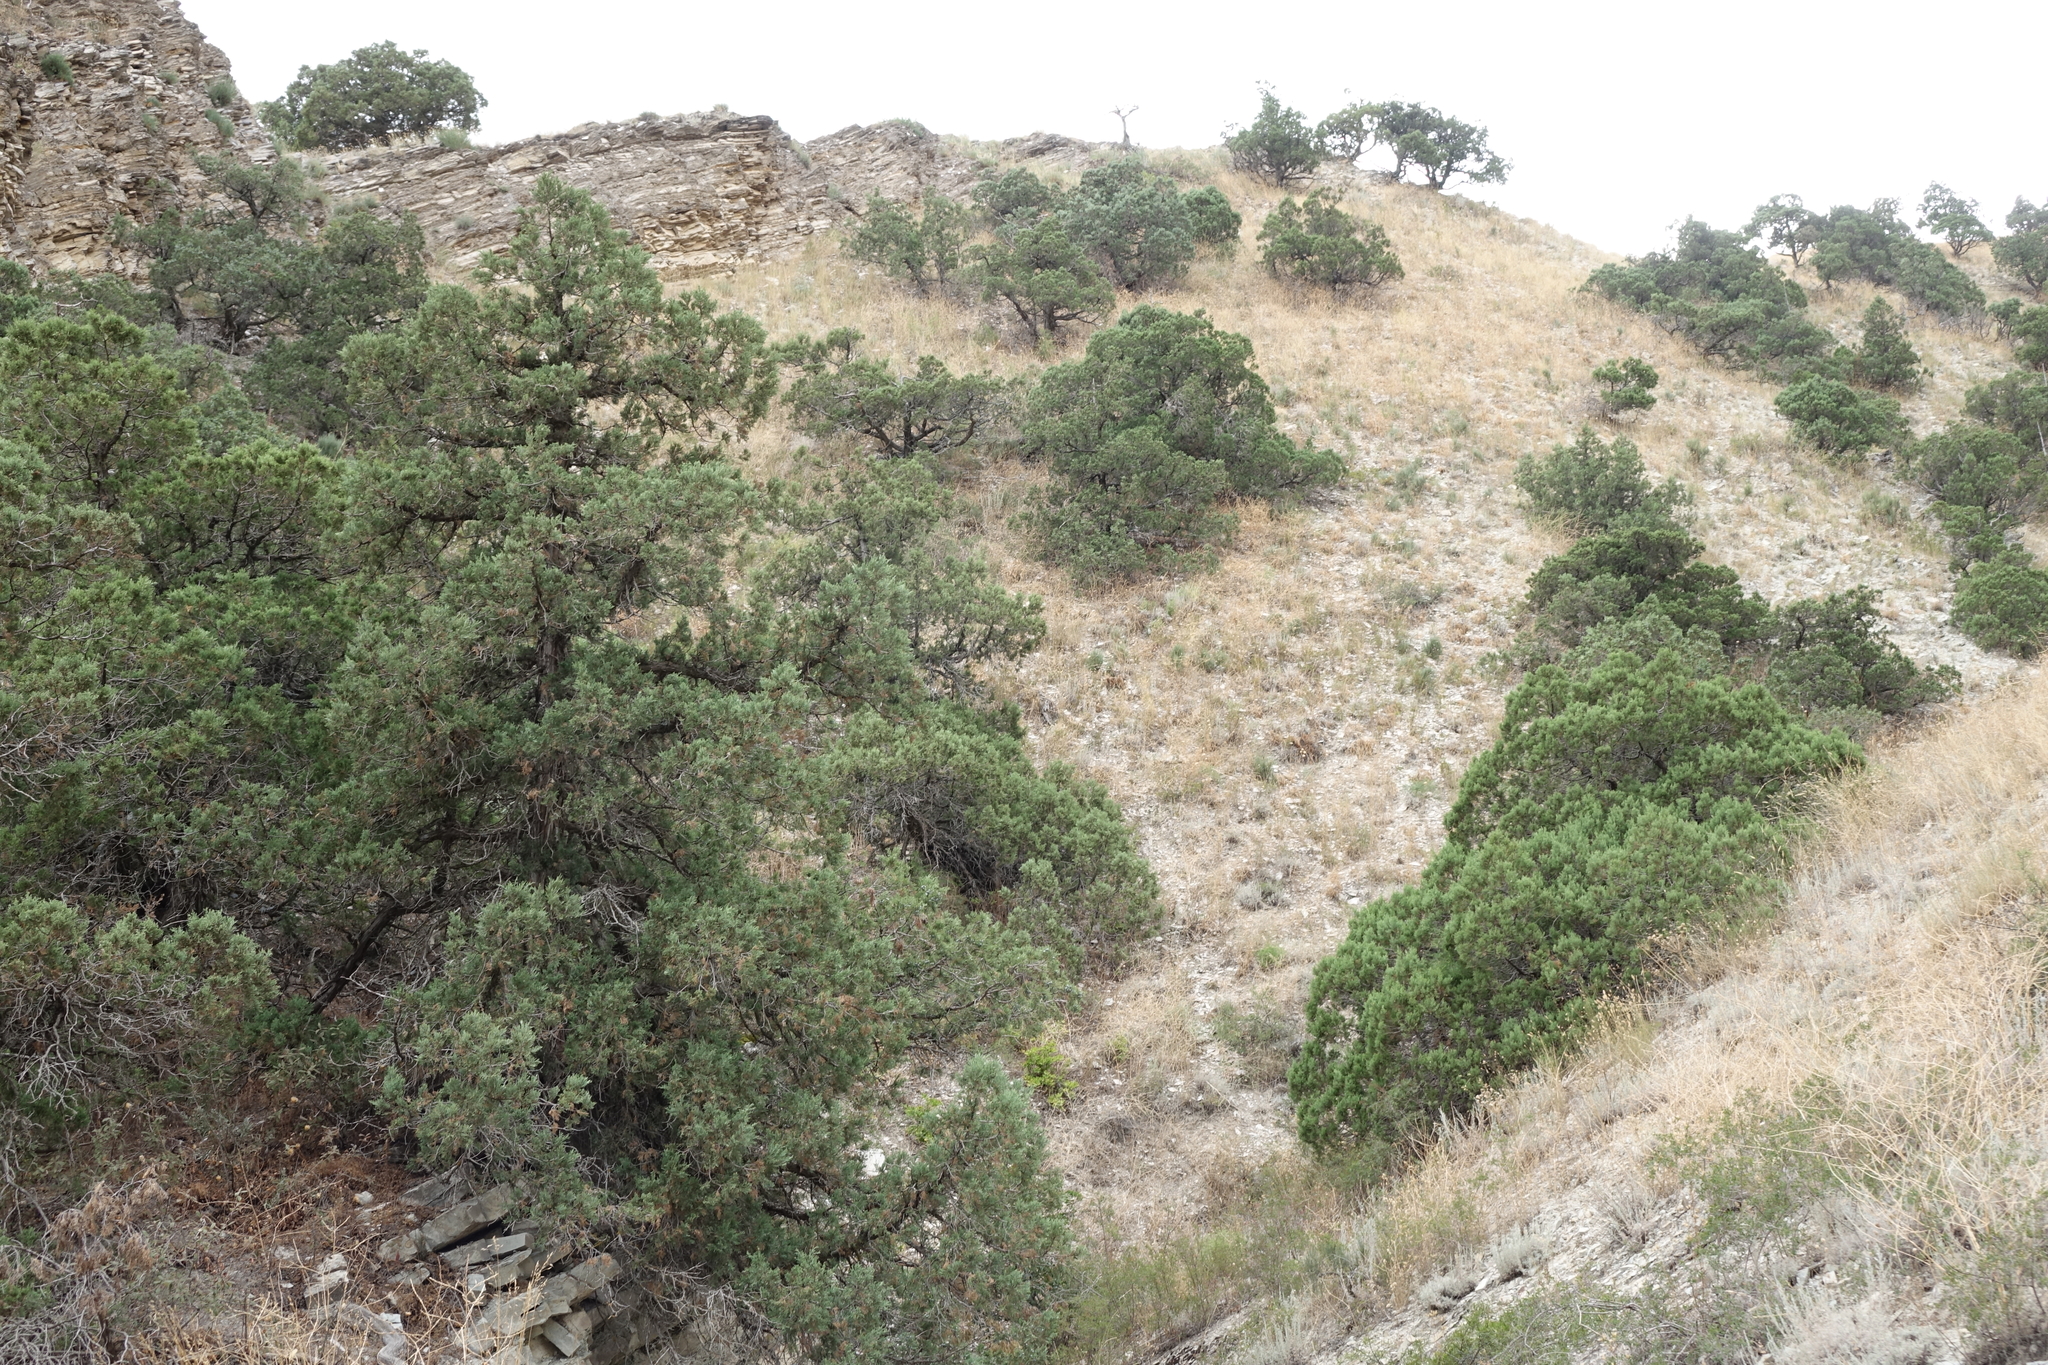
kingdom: Plantae
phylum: Tracheophyta
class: Pinopsida
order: Pinales
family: Cupressaceae
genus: Juniperus
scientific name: Juniperus excelsa
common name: Crimean juniper
